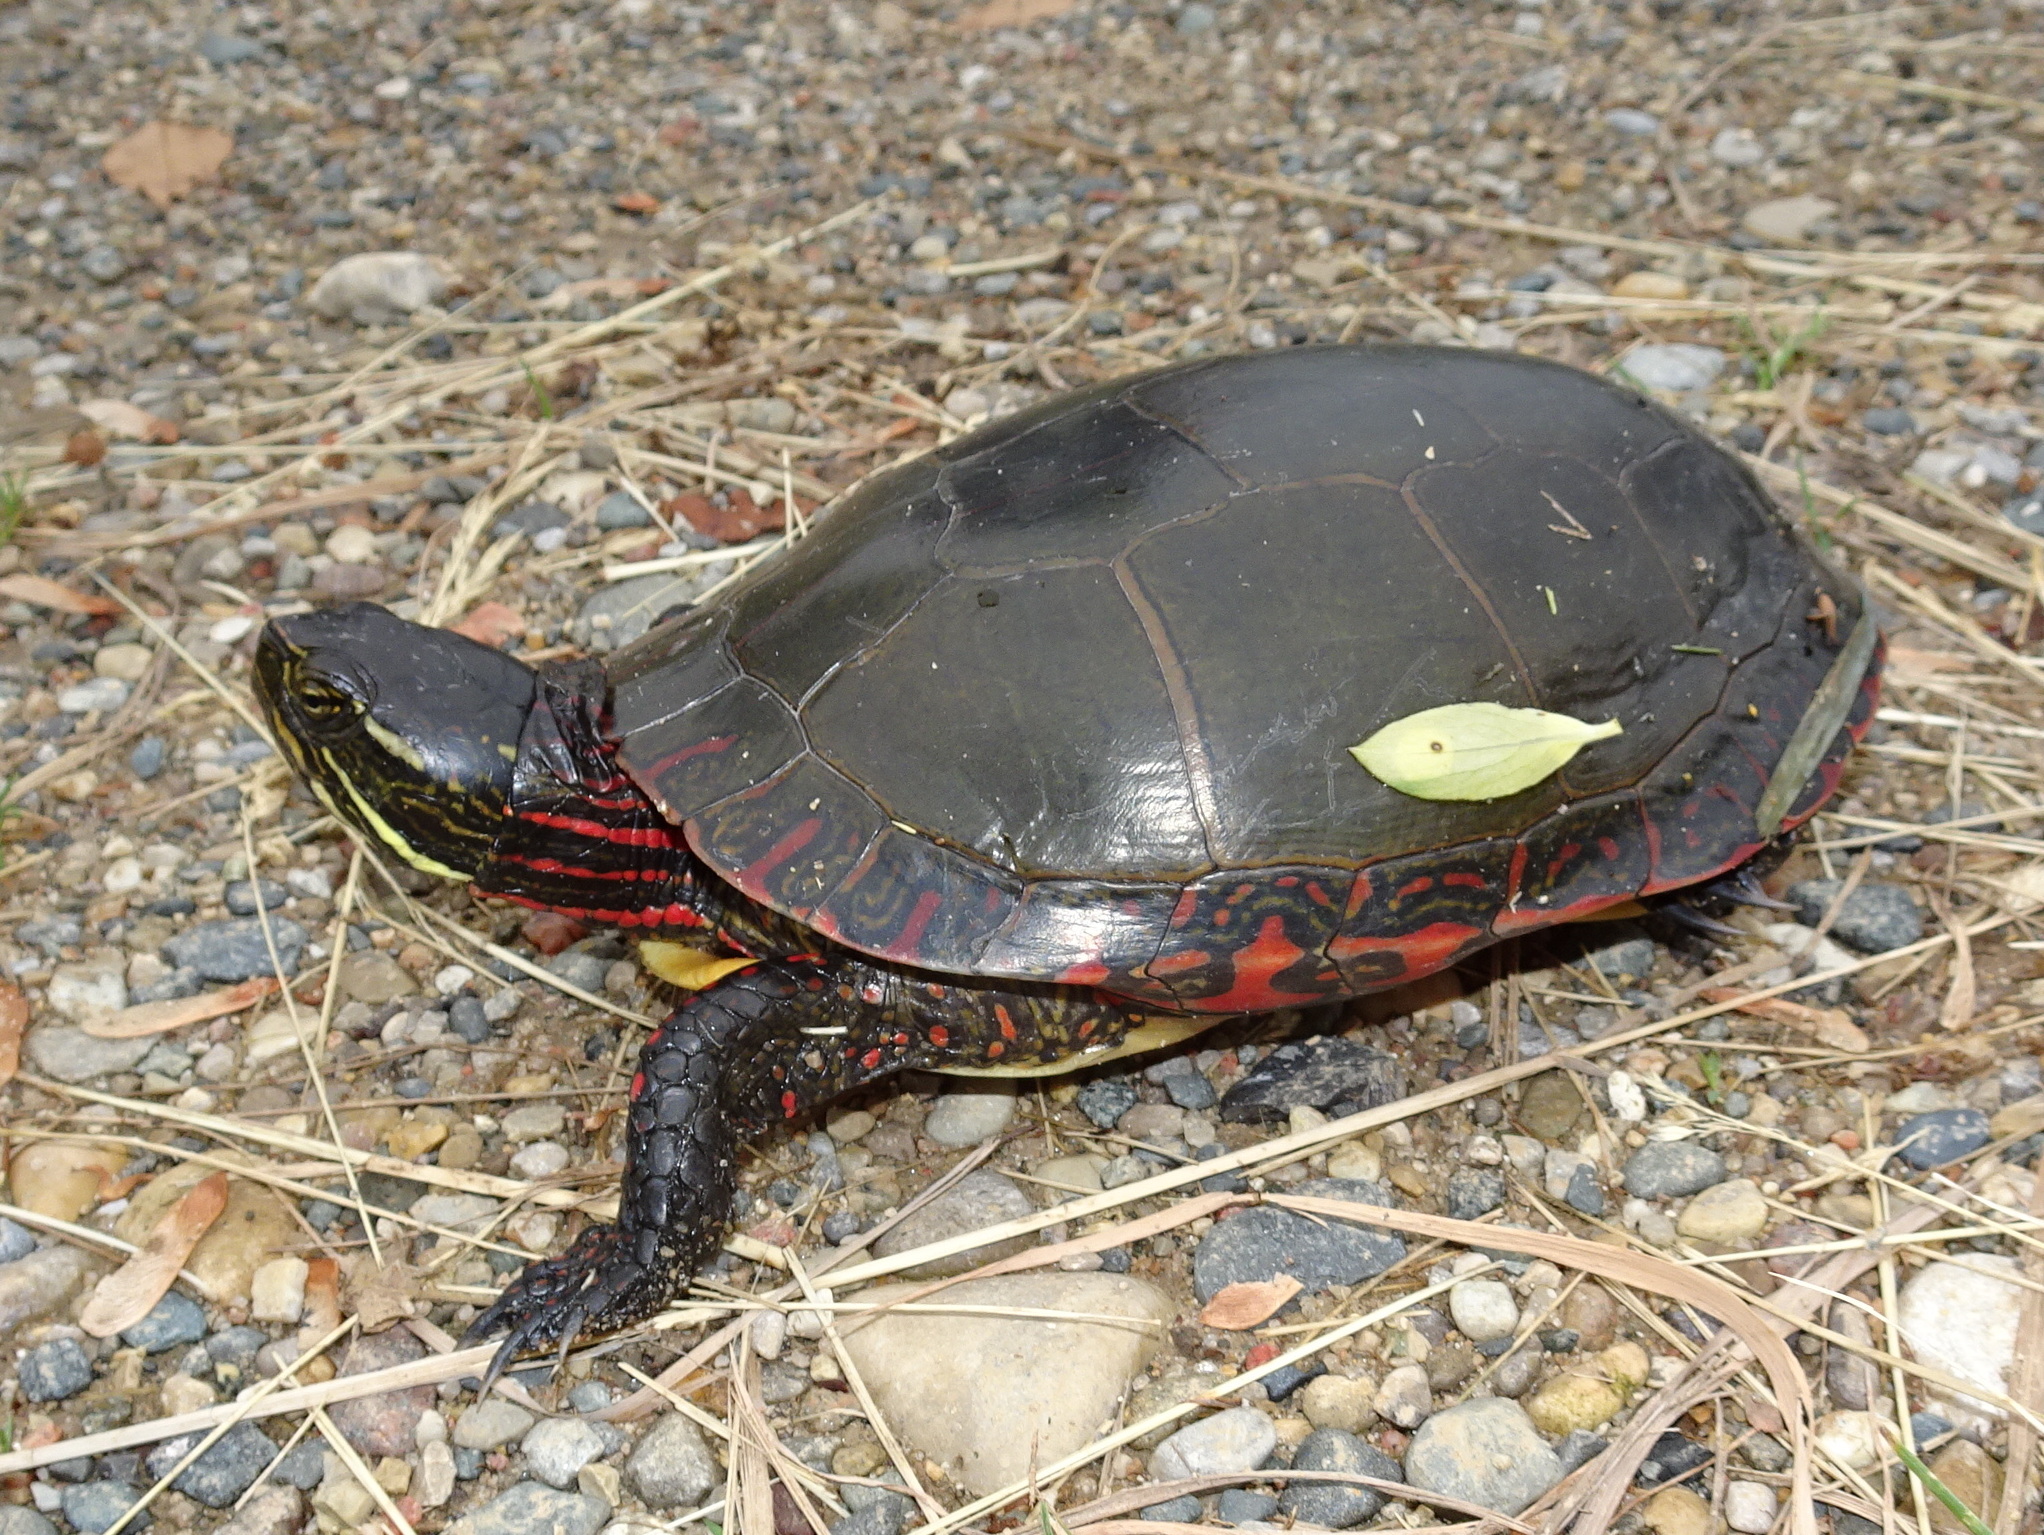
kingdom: Animalia
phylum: Chordata
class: Testudines
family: Emydidae
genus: Chrysemys
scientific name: Chrysemys picta
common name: Painted turtle
